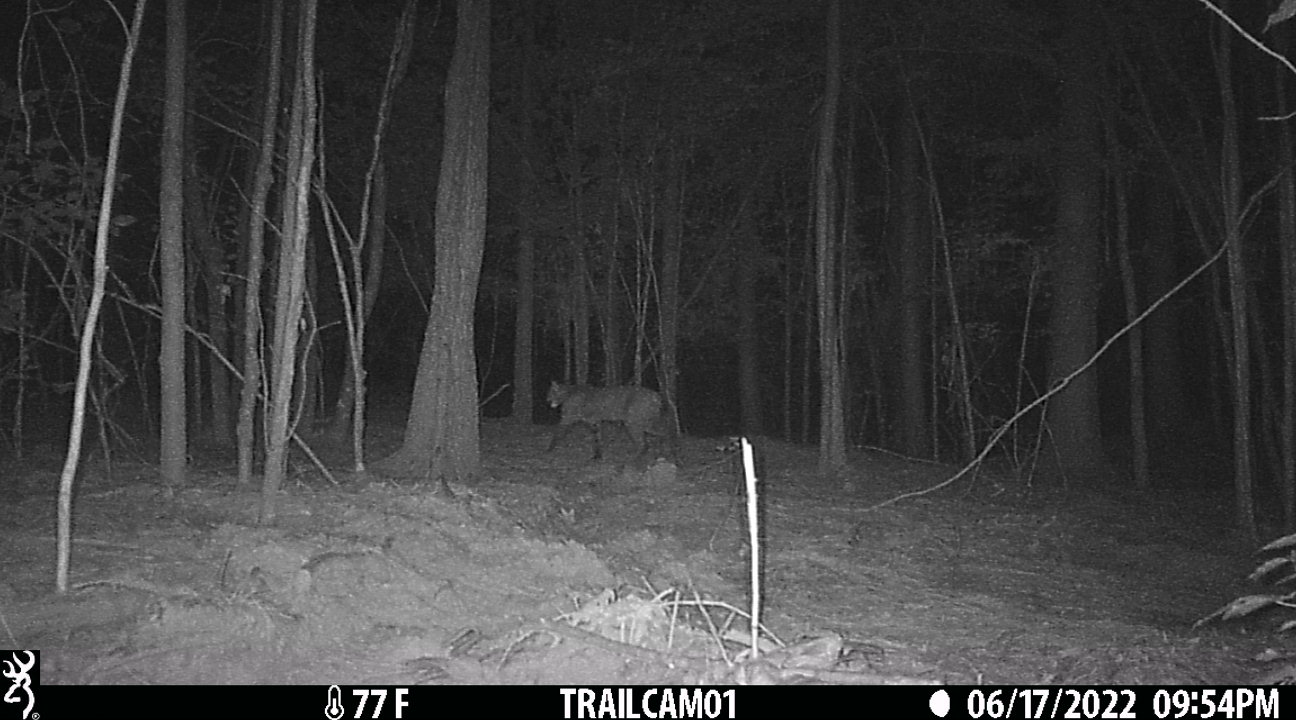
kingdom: Animalia
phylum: Chordata
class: Mammalia
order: Carnivora
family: Felidae
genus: Lynx
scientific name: Lynx rufus
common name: Bobcat
